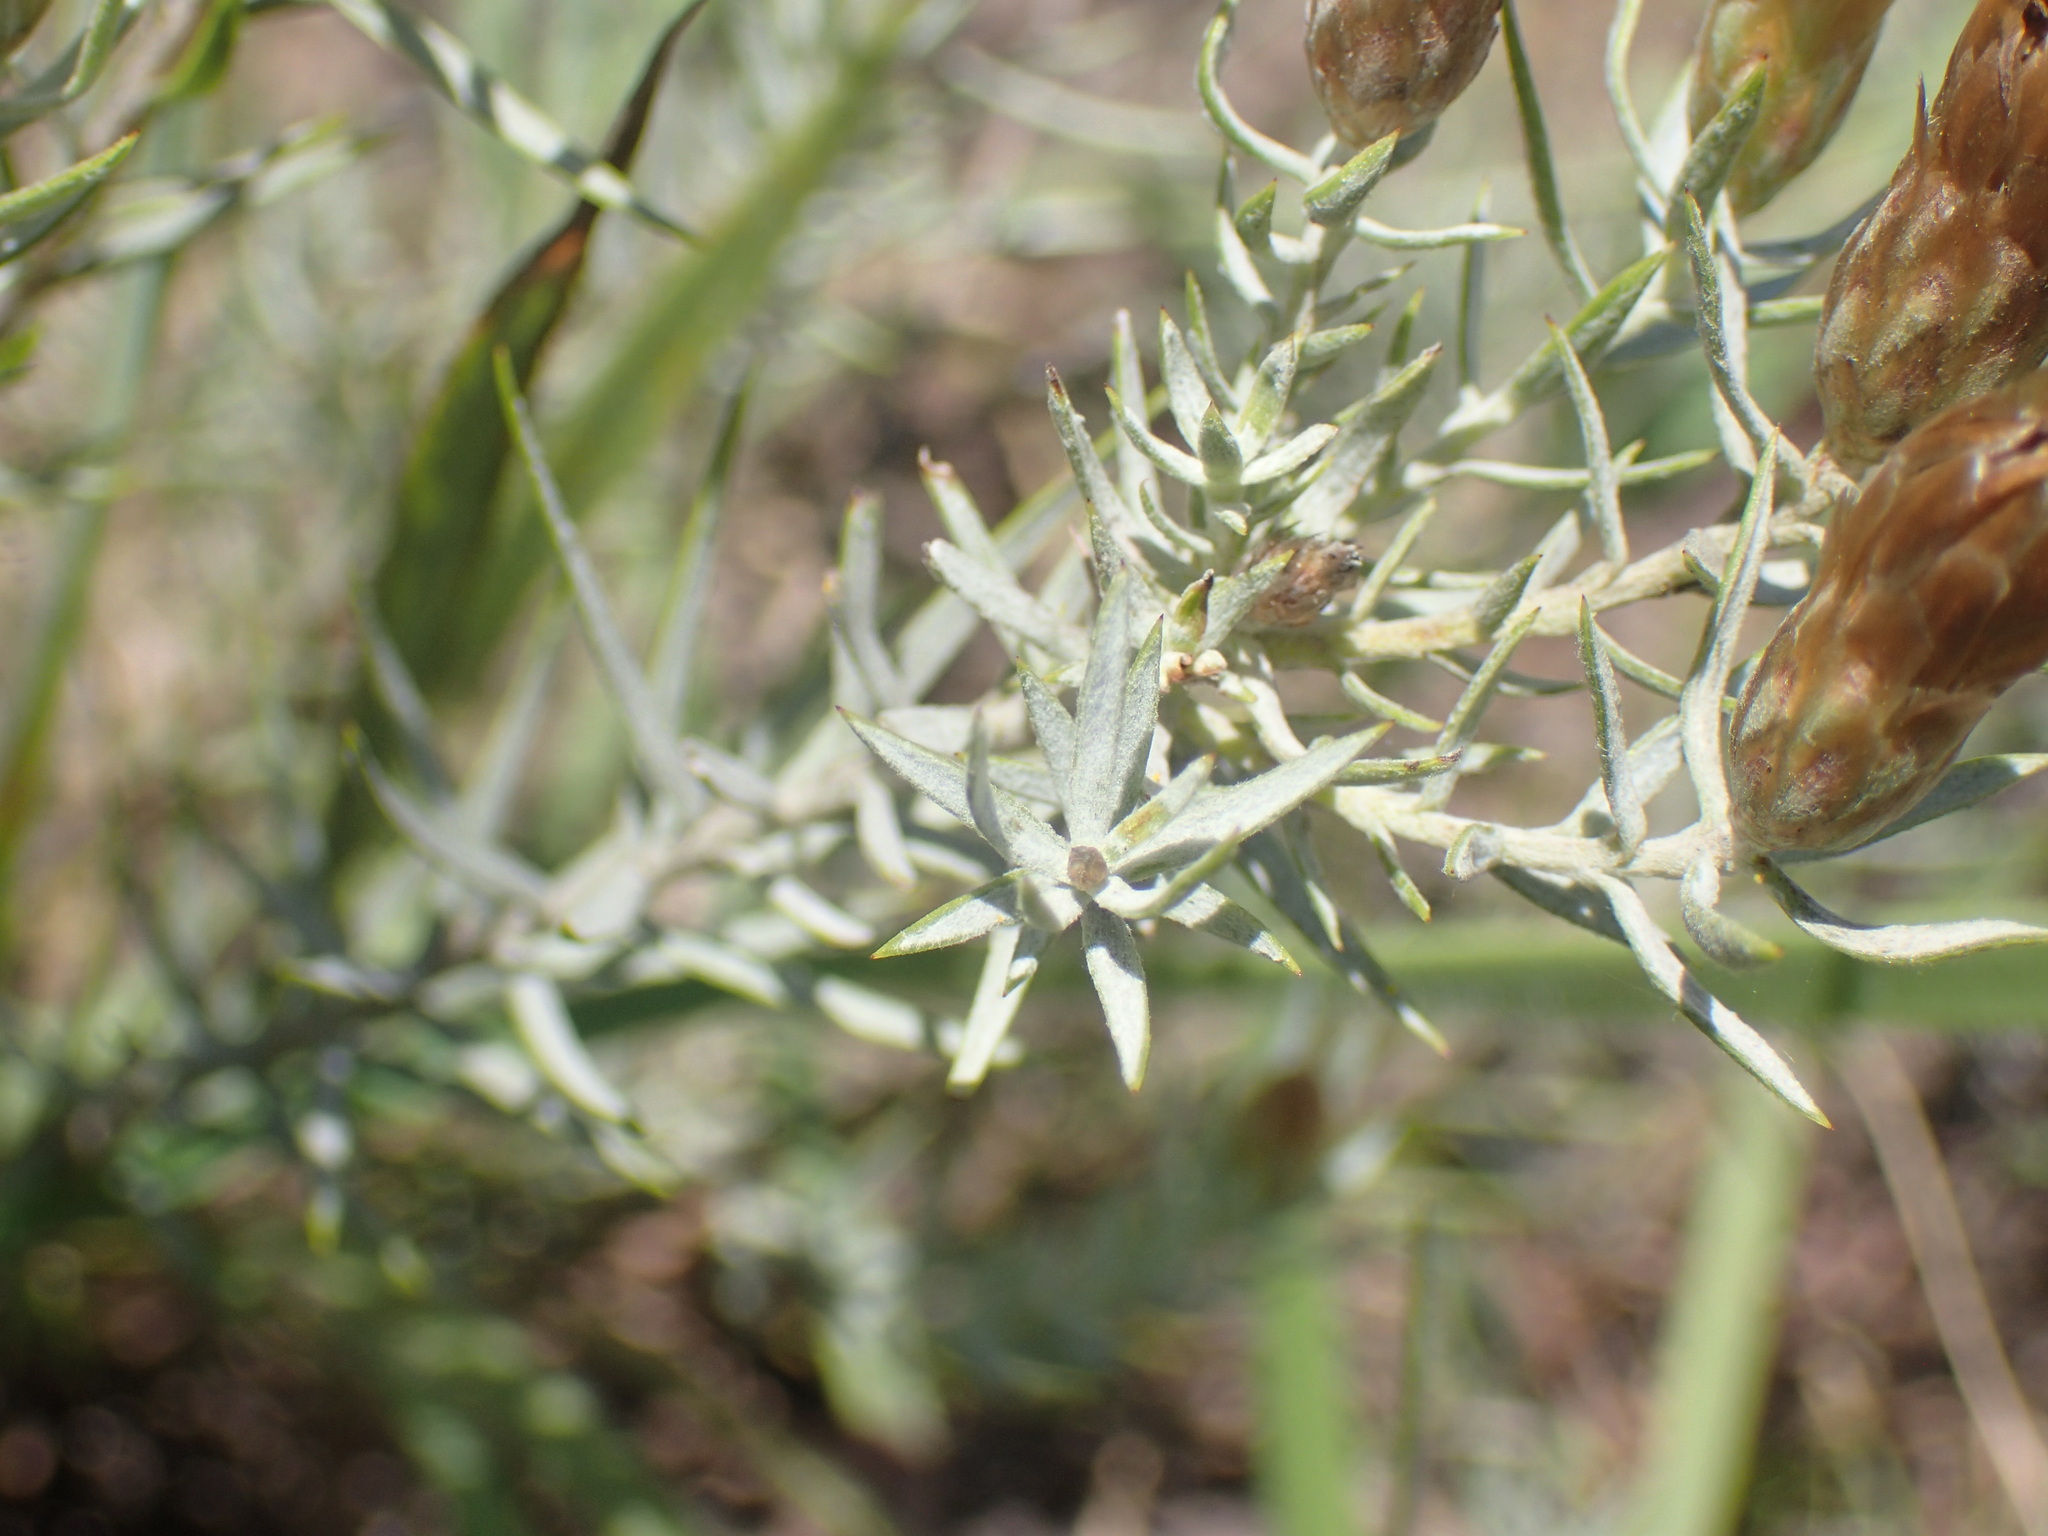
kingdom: Plantae
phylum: Tracheophyta
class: Magnoliopsida
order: Asterales
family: Asteraceae
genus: Oedera
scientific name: Oedera pungens
